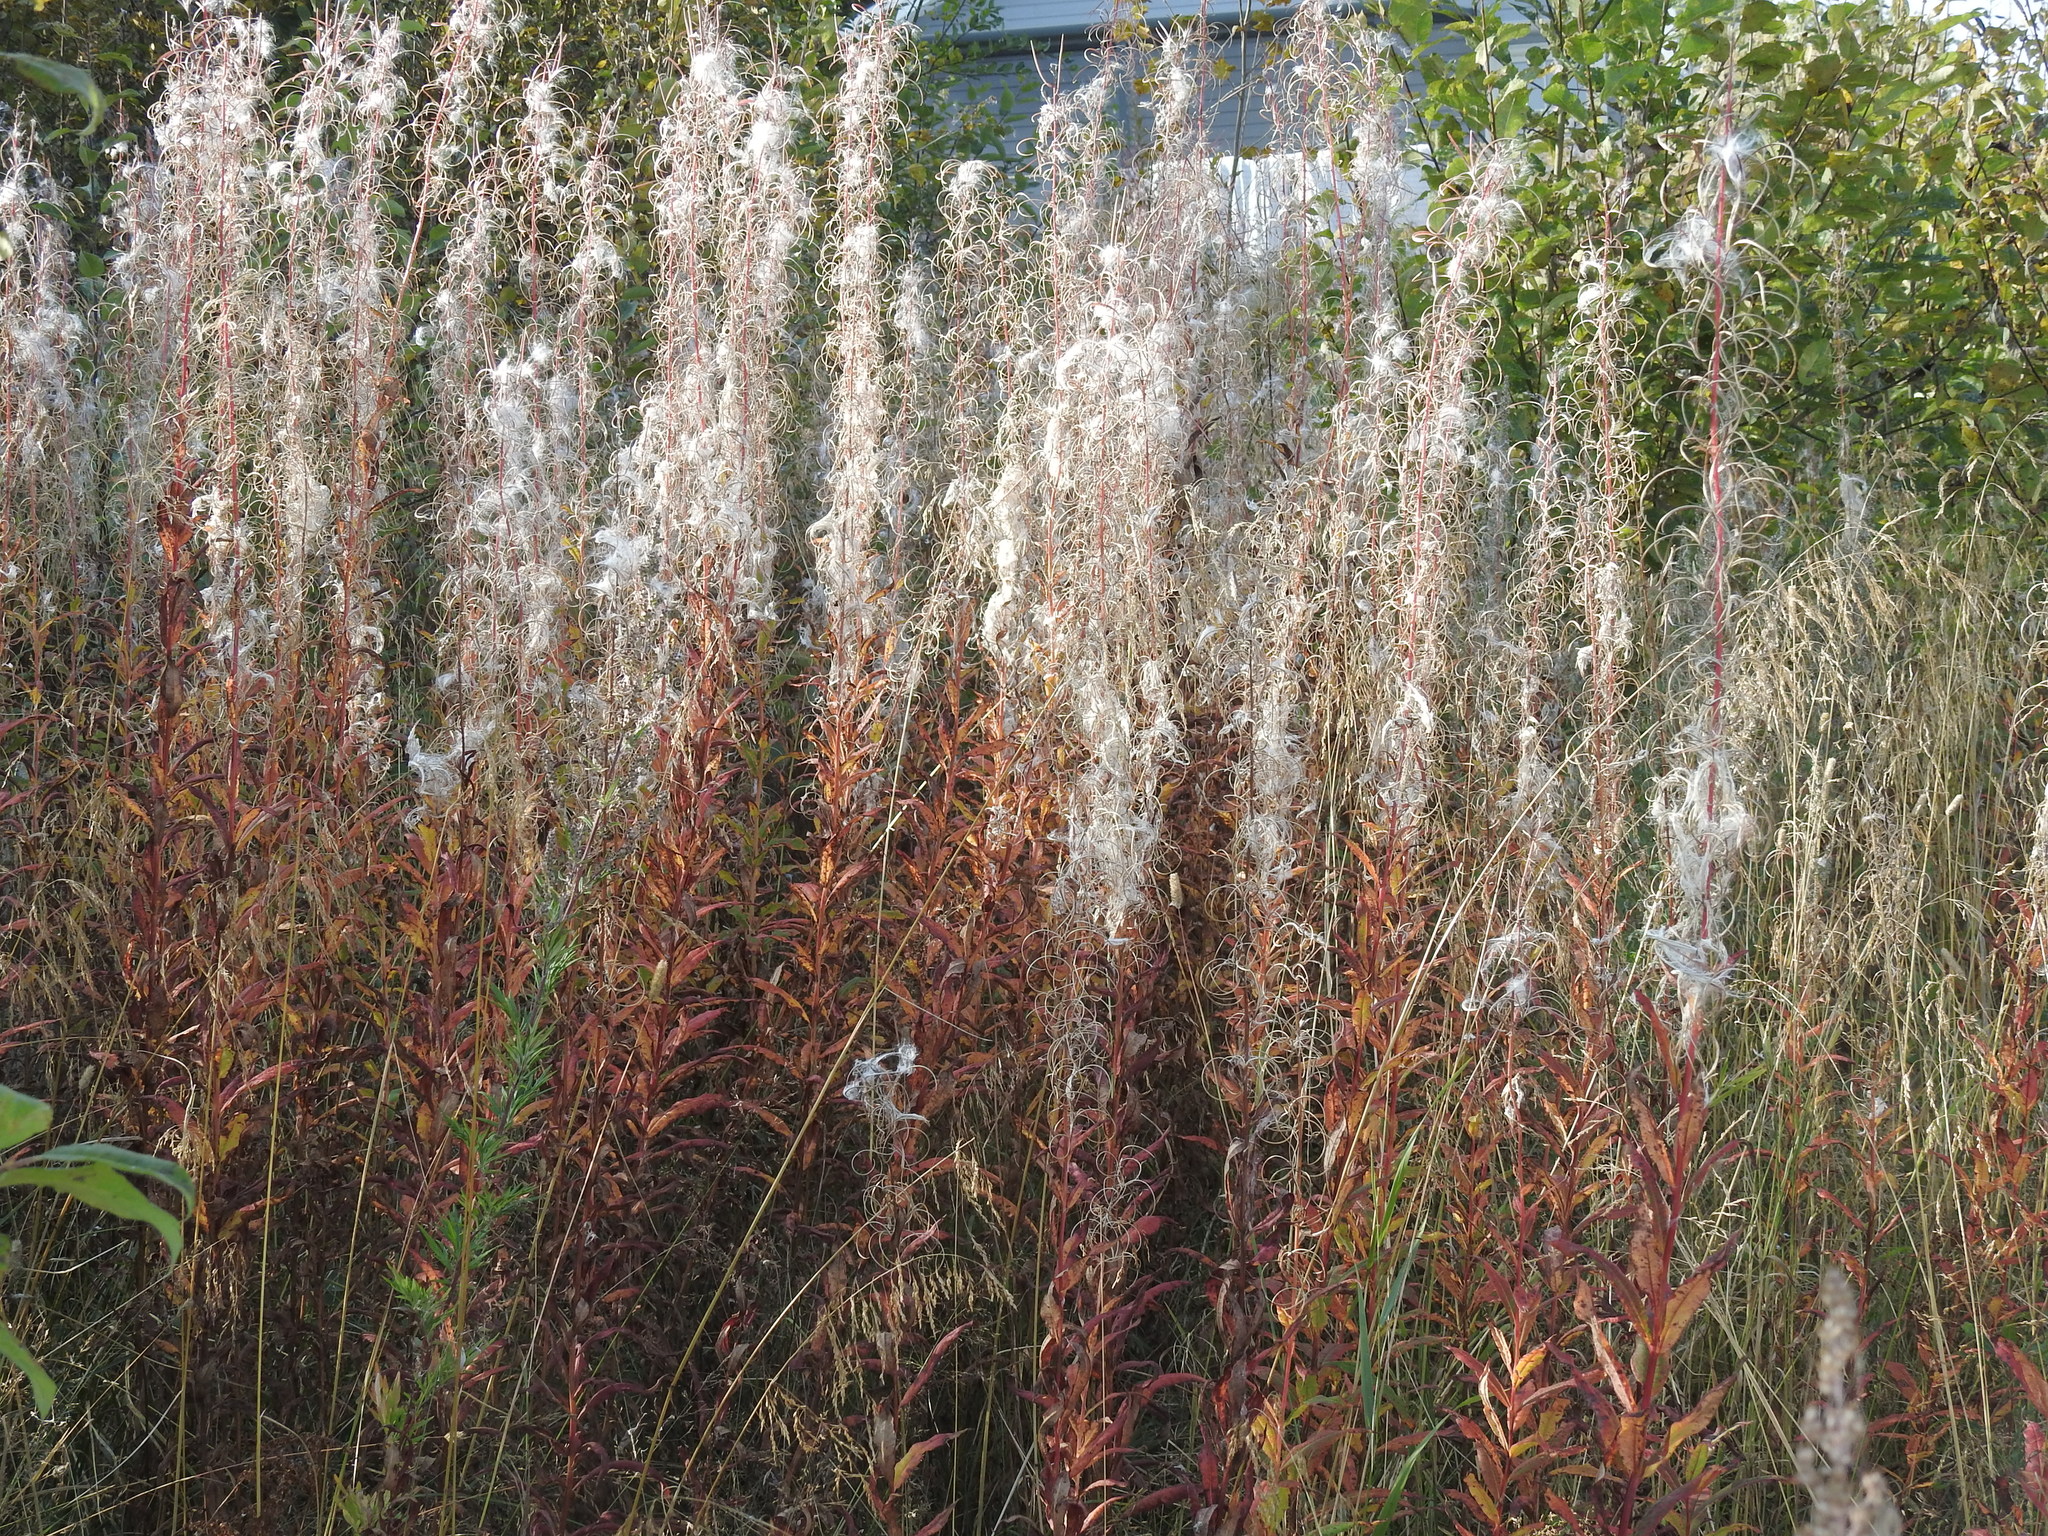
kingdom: Plantae
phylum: Tracheophyta
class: Magnoliopsida
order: Myrtales
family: Onagraceae
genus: Chamaenerion
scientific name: Chamaenerion angustifolium
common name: Fireweed
